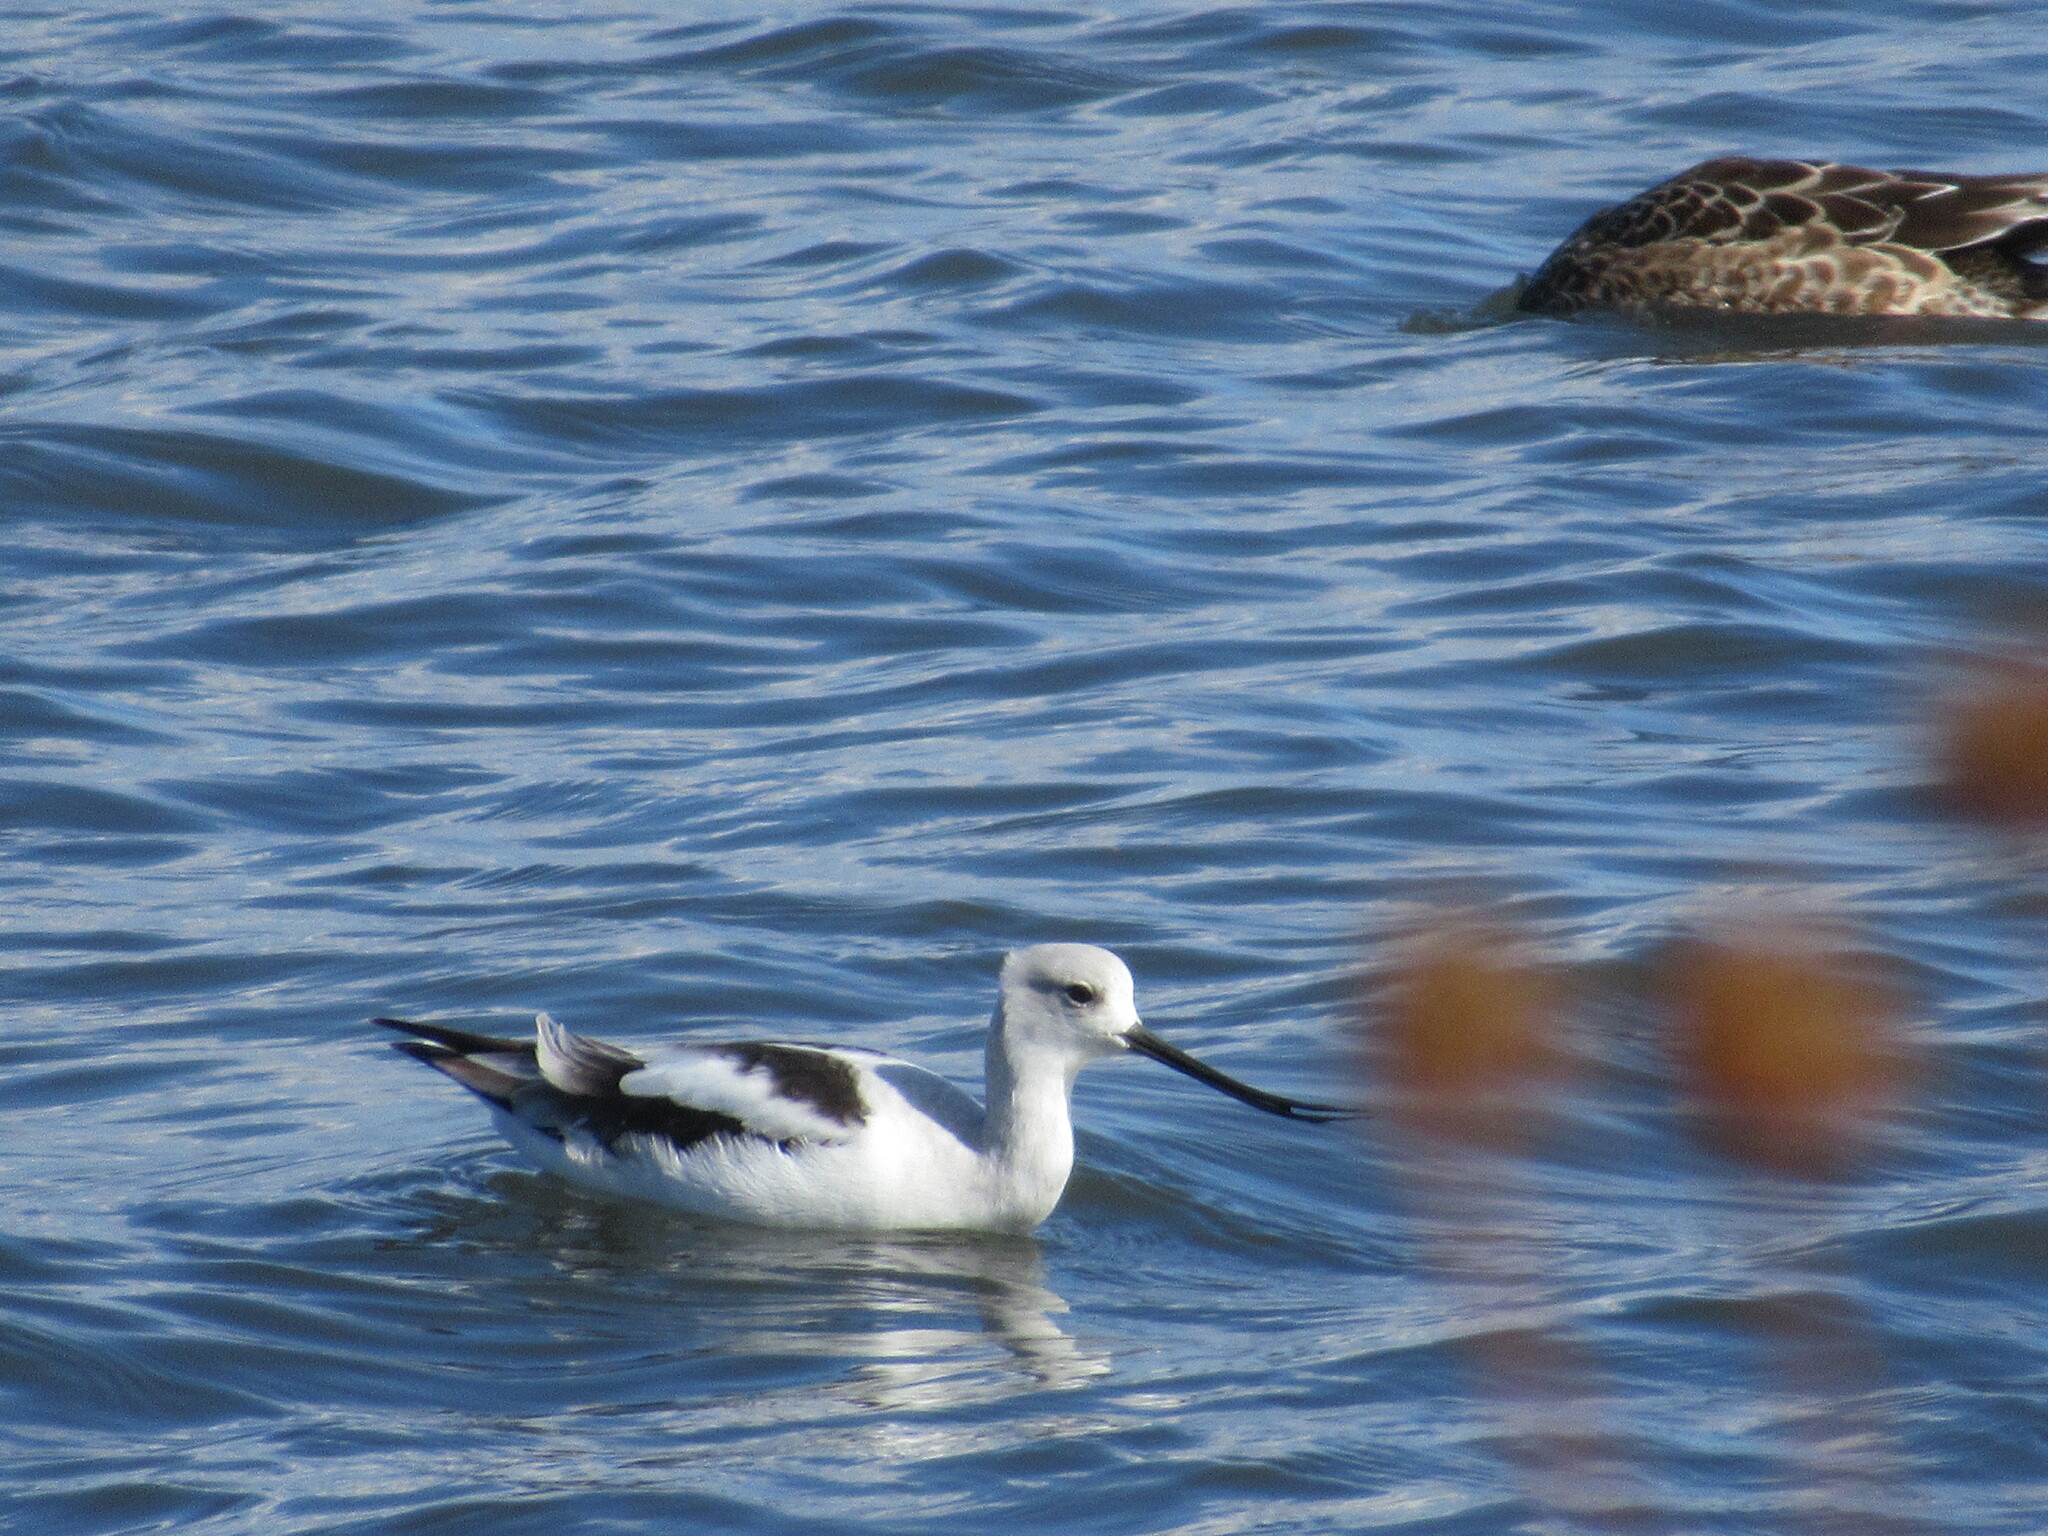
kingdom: Animalia
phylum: Chordata
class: Aves
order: Charadriiformes
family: Recurvirostridae
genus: Recurvirostra
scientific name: Recurvirostra americana
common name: American avocet
